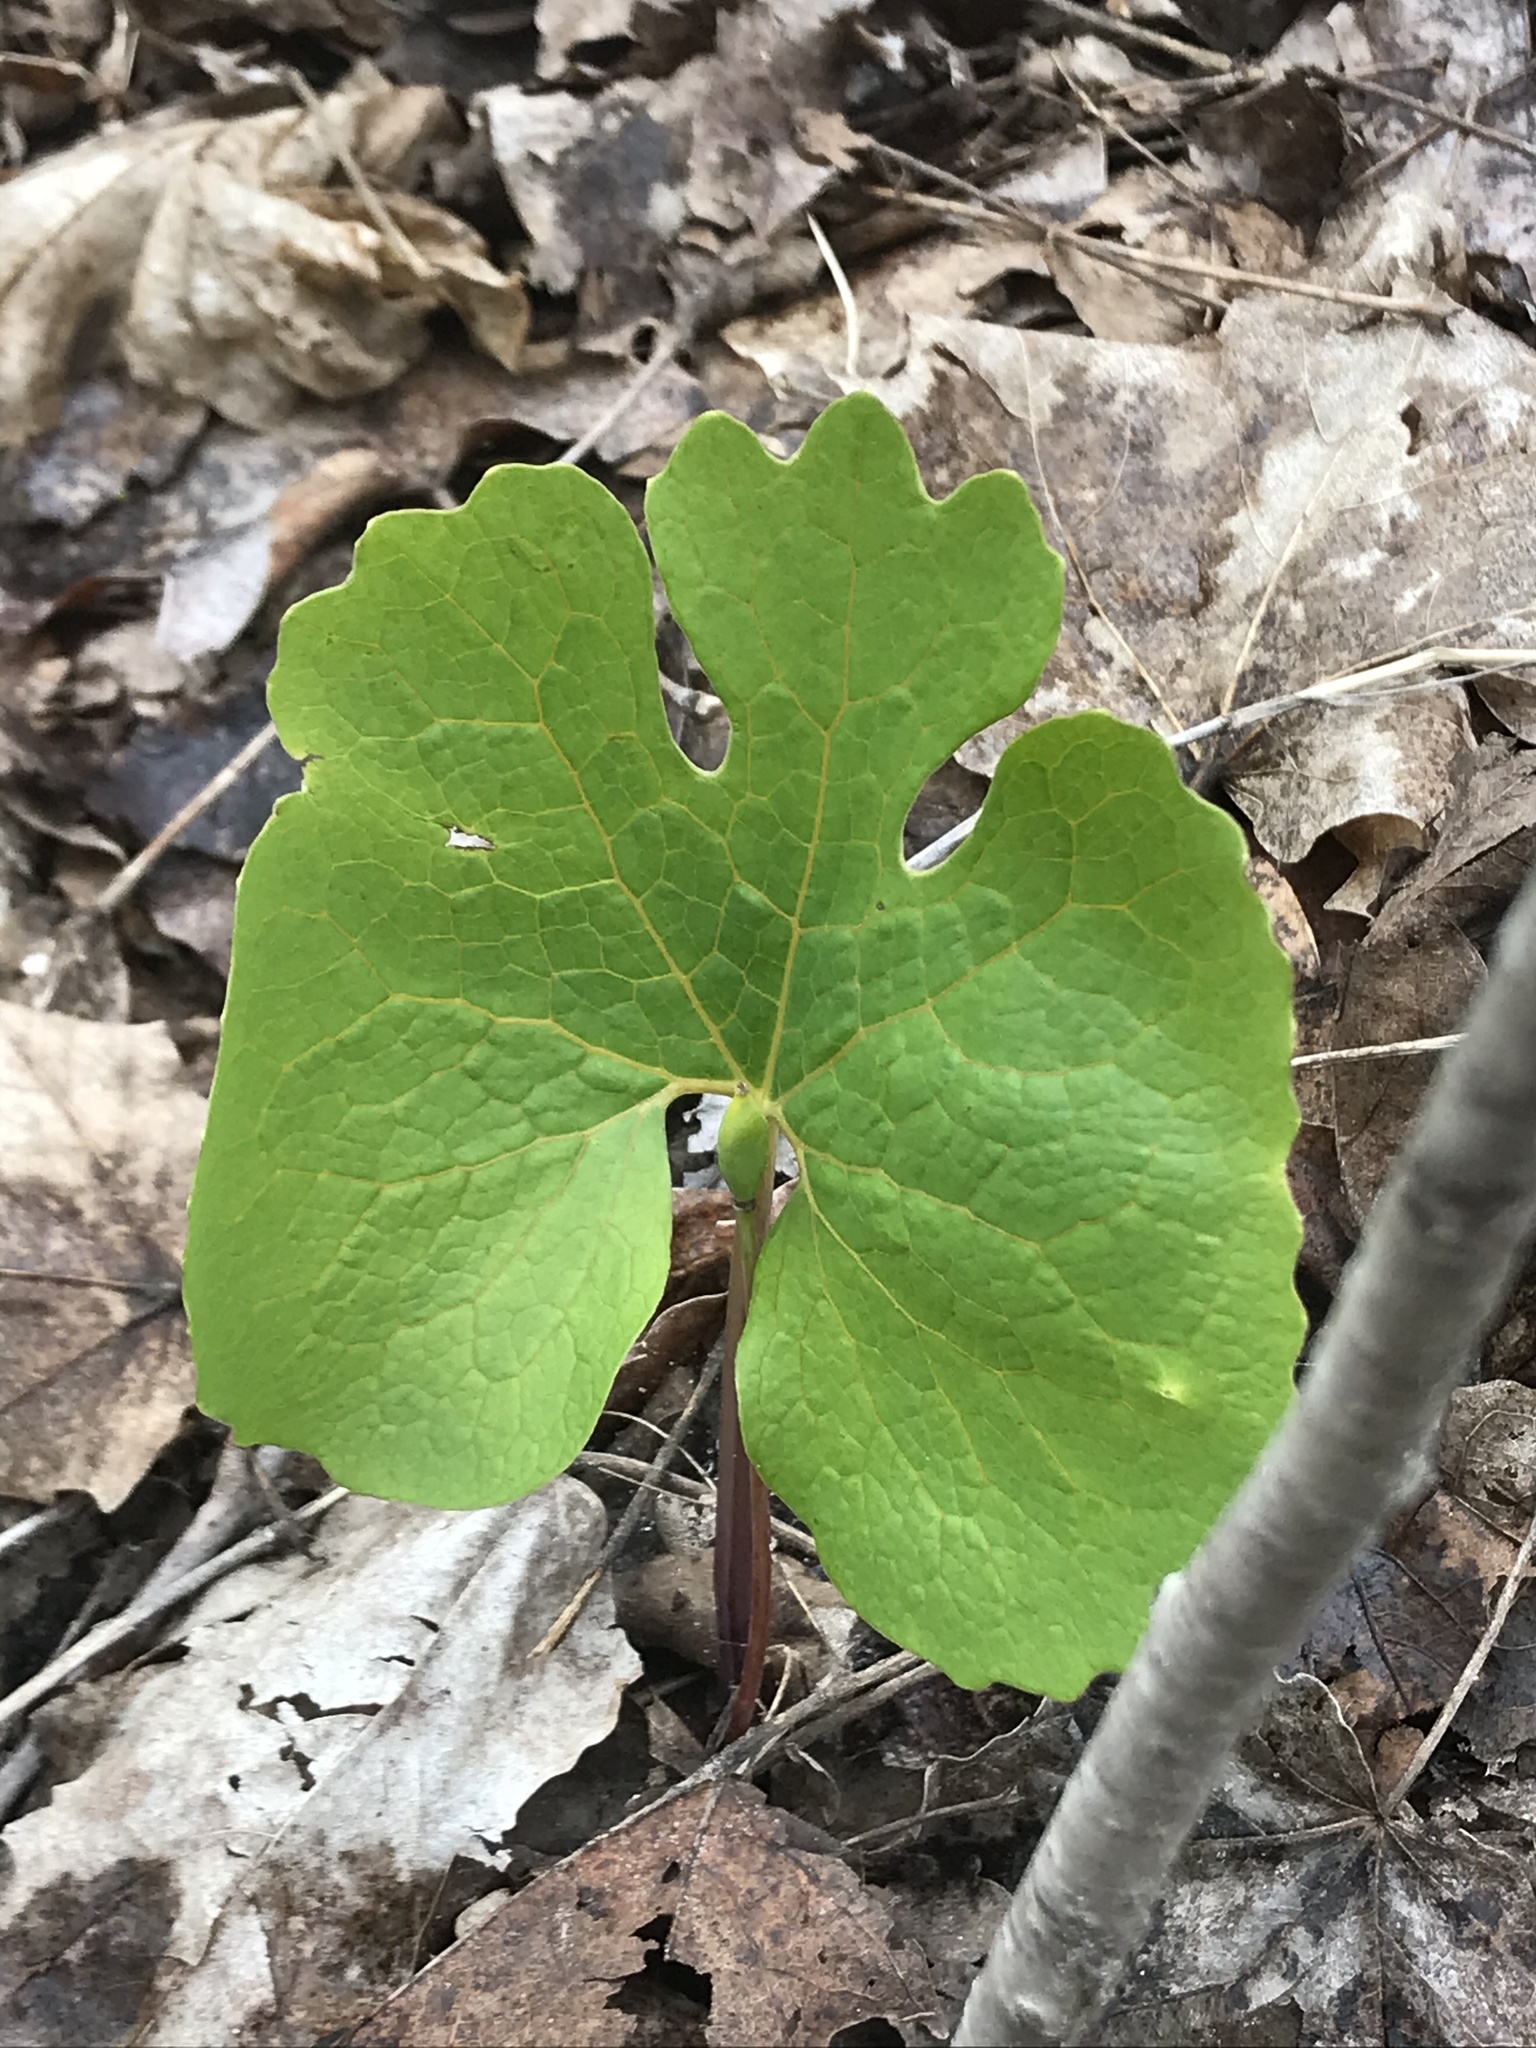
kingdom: Plantae
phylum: Tracheophyta
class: Magnoliopsida
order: Ranunculales
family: Papaveraceae
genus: Sanguinaria
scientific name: Sanguinaria canadensis
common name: Bloodroot
